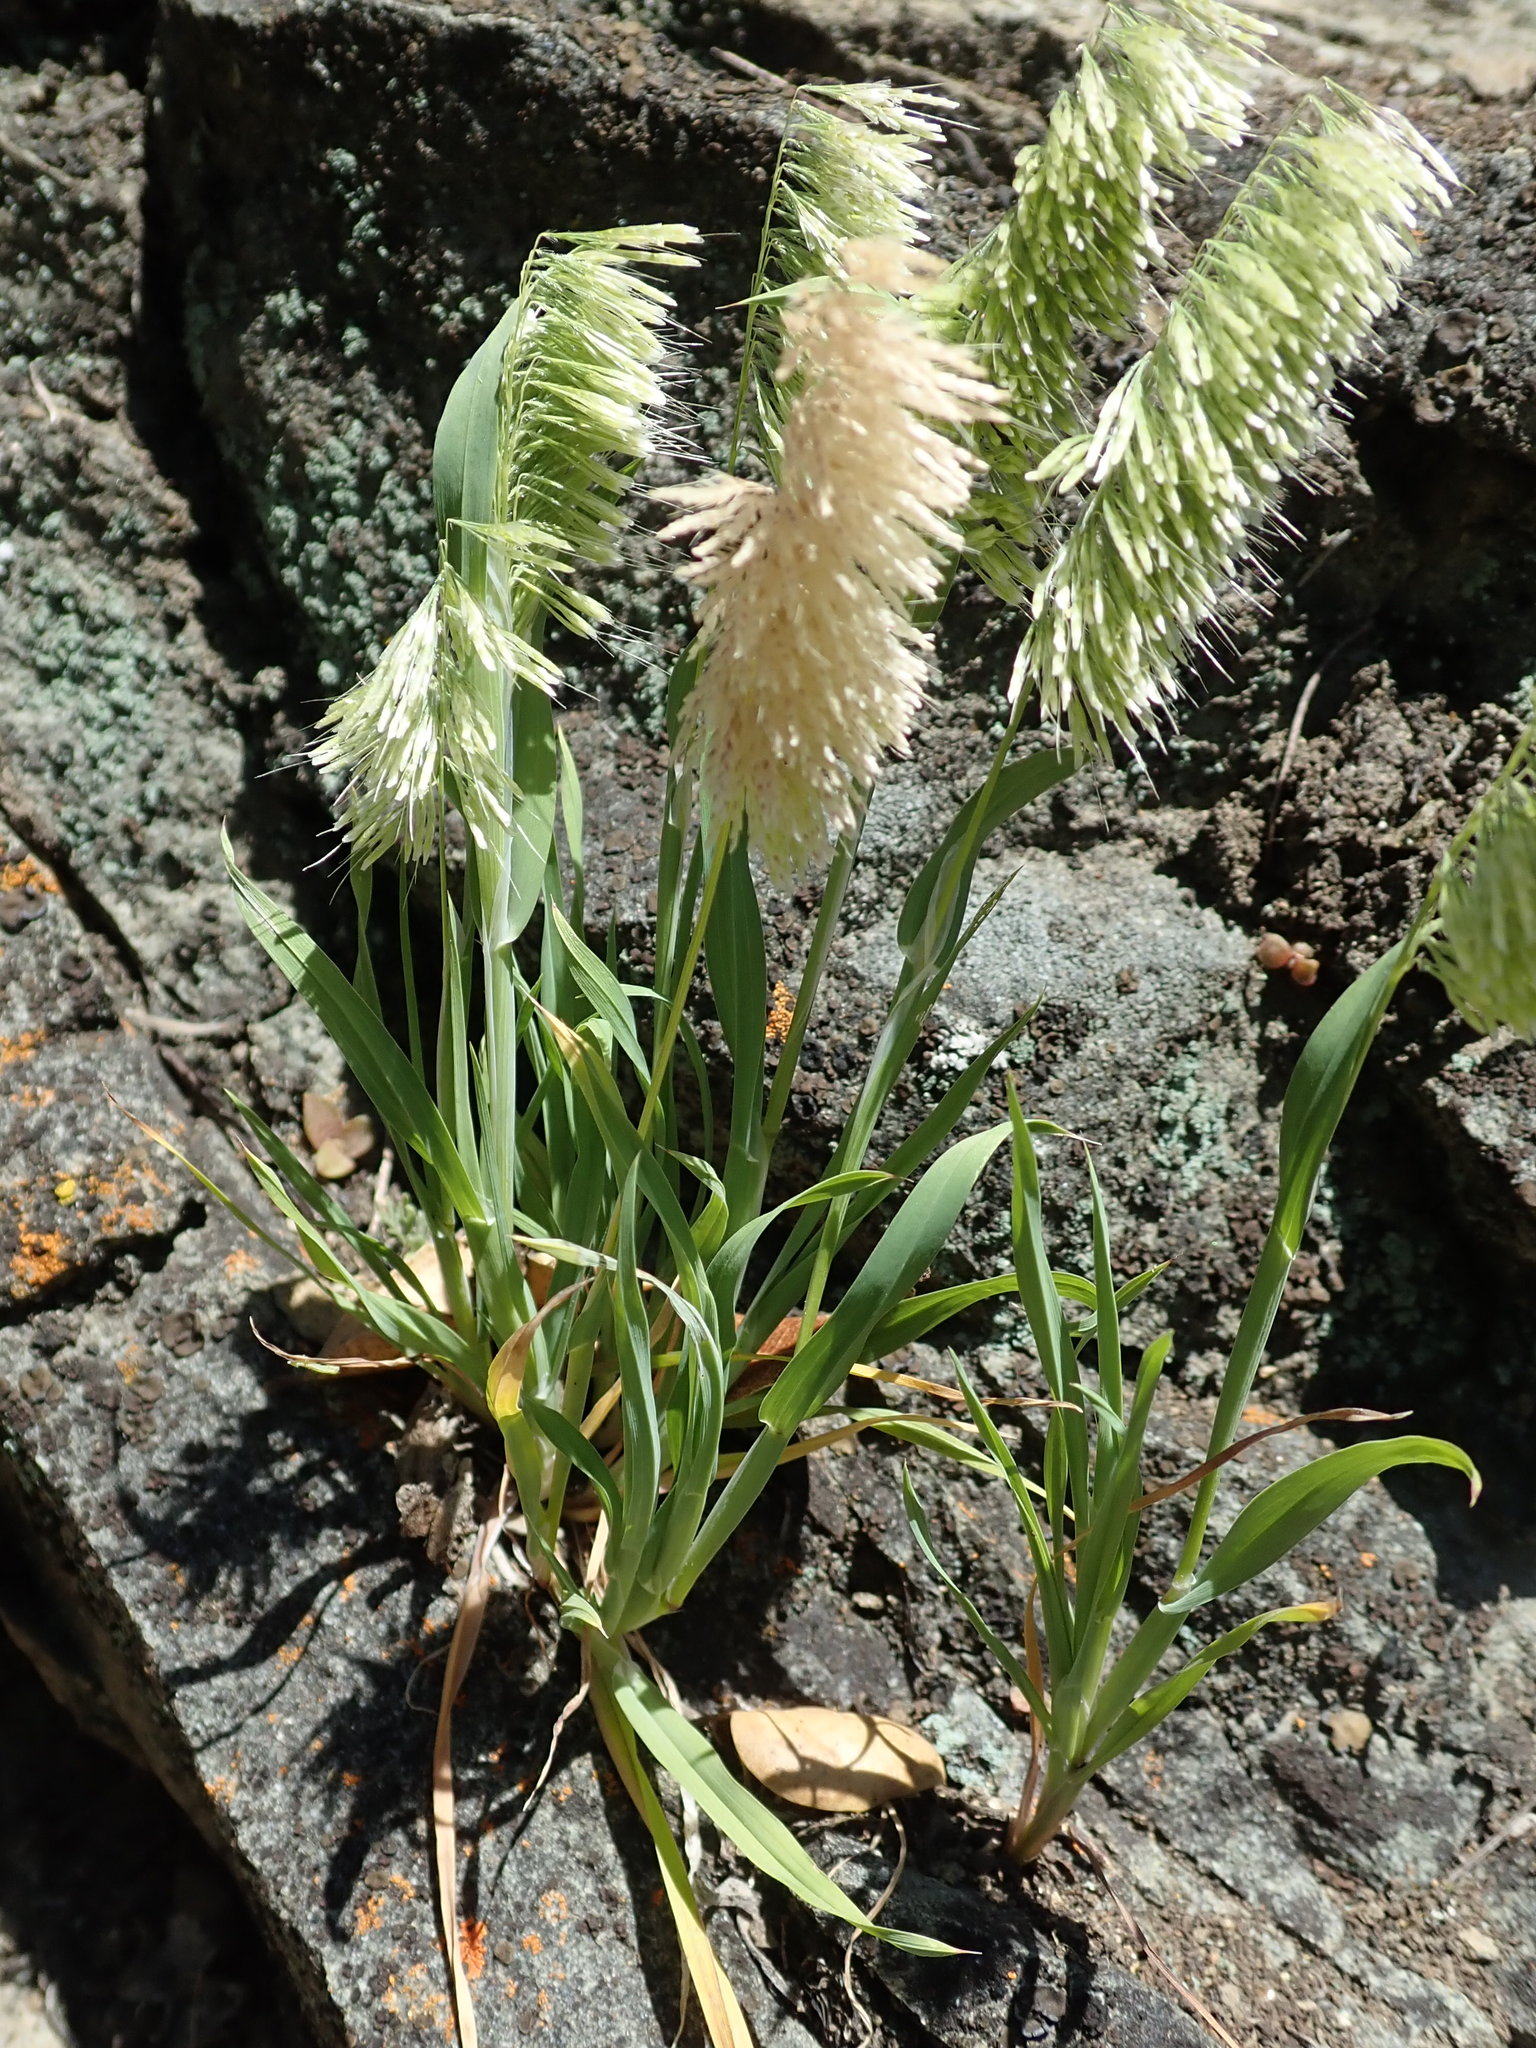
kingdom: Plantae
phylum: Tracheophyta
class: Liliopsida
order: Poales
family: Poaceae
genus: Lamarckia
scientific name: Lamarckia aurea
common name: Golden dog's-tail
